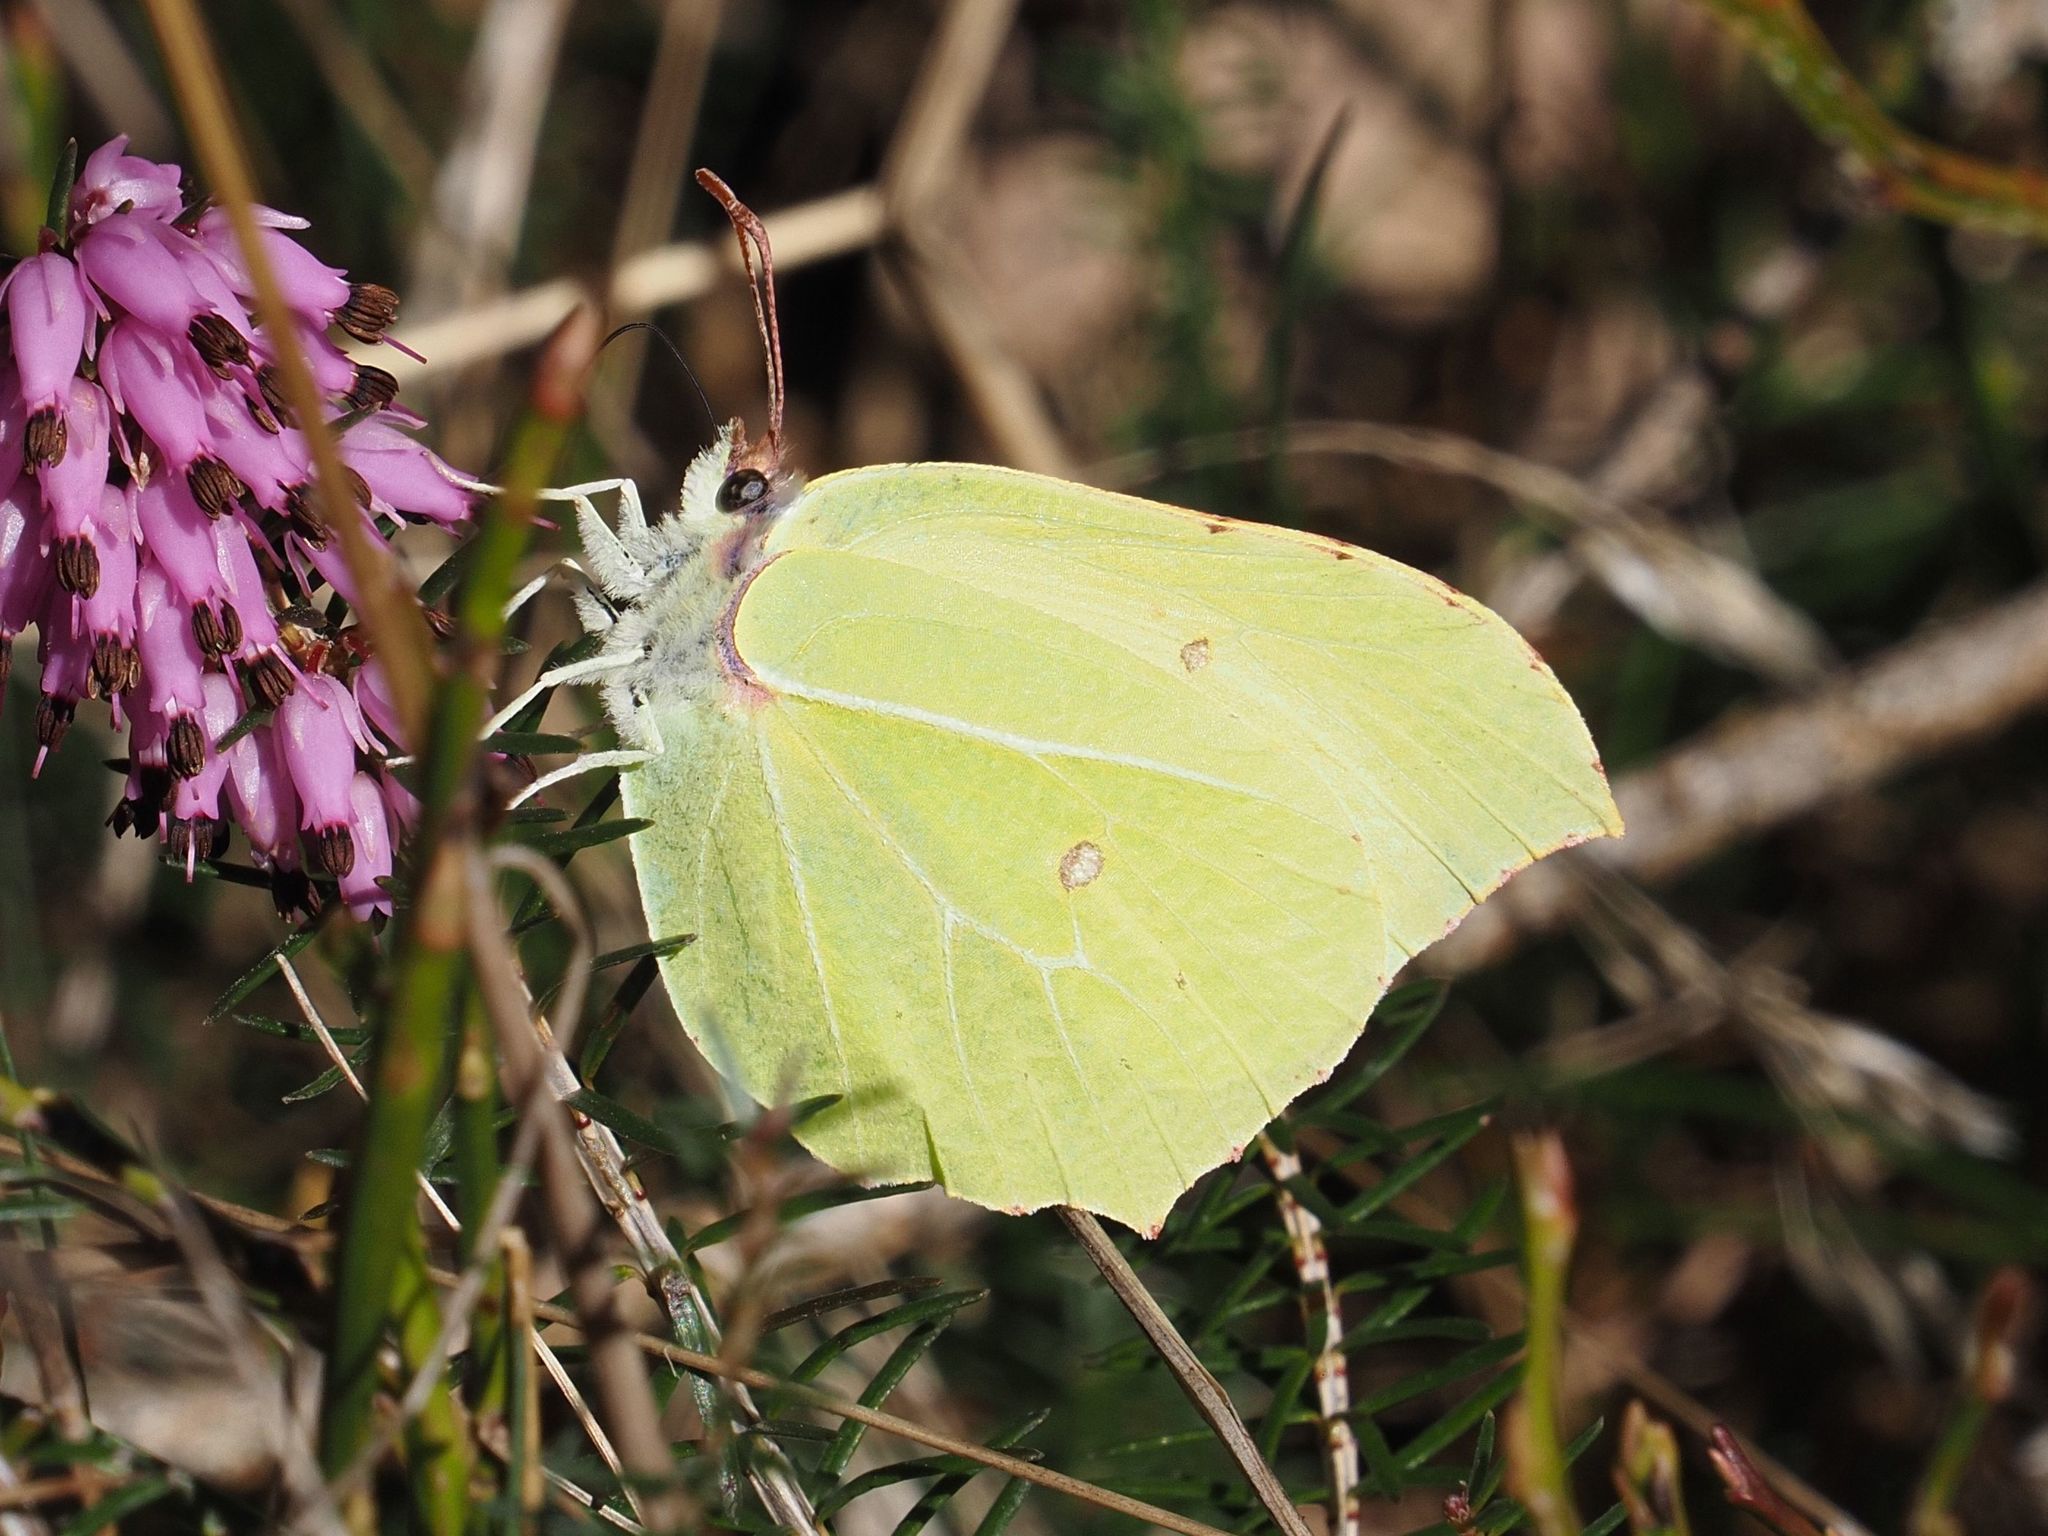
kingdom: Animalia
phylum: Arthropoda
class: Insecta
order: Lepidoptera
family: Pieridae
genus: Gonepteryx
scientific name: Gonepteryx rhamni
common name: Brimstone
